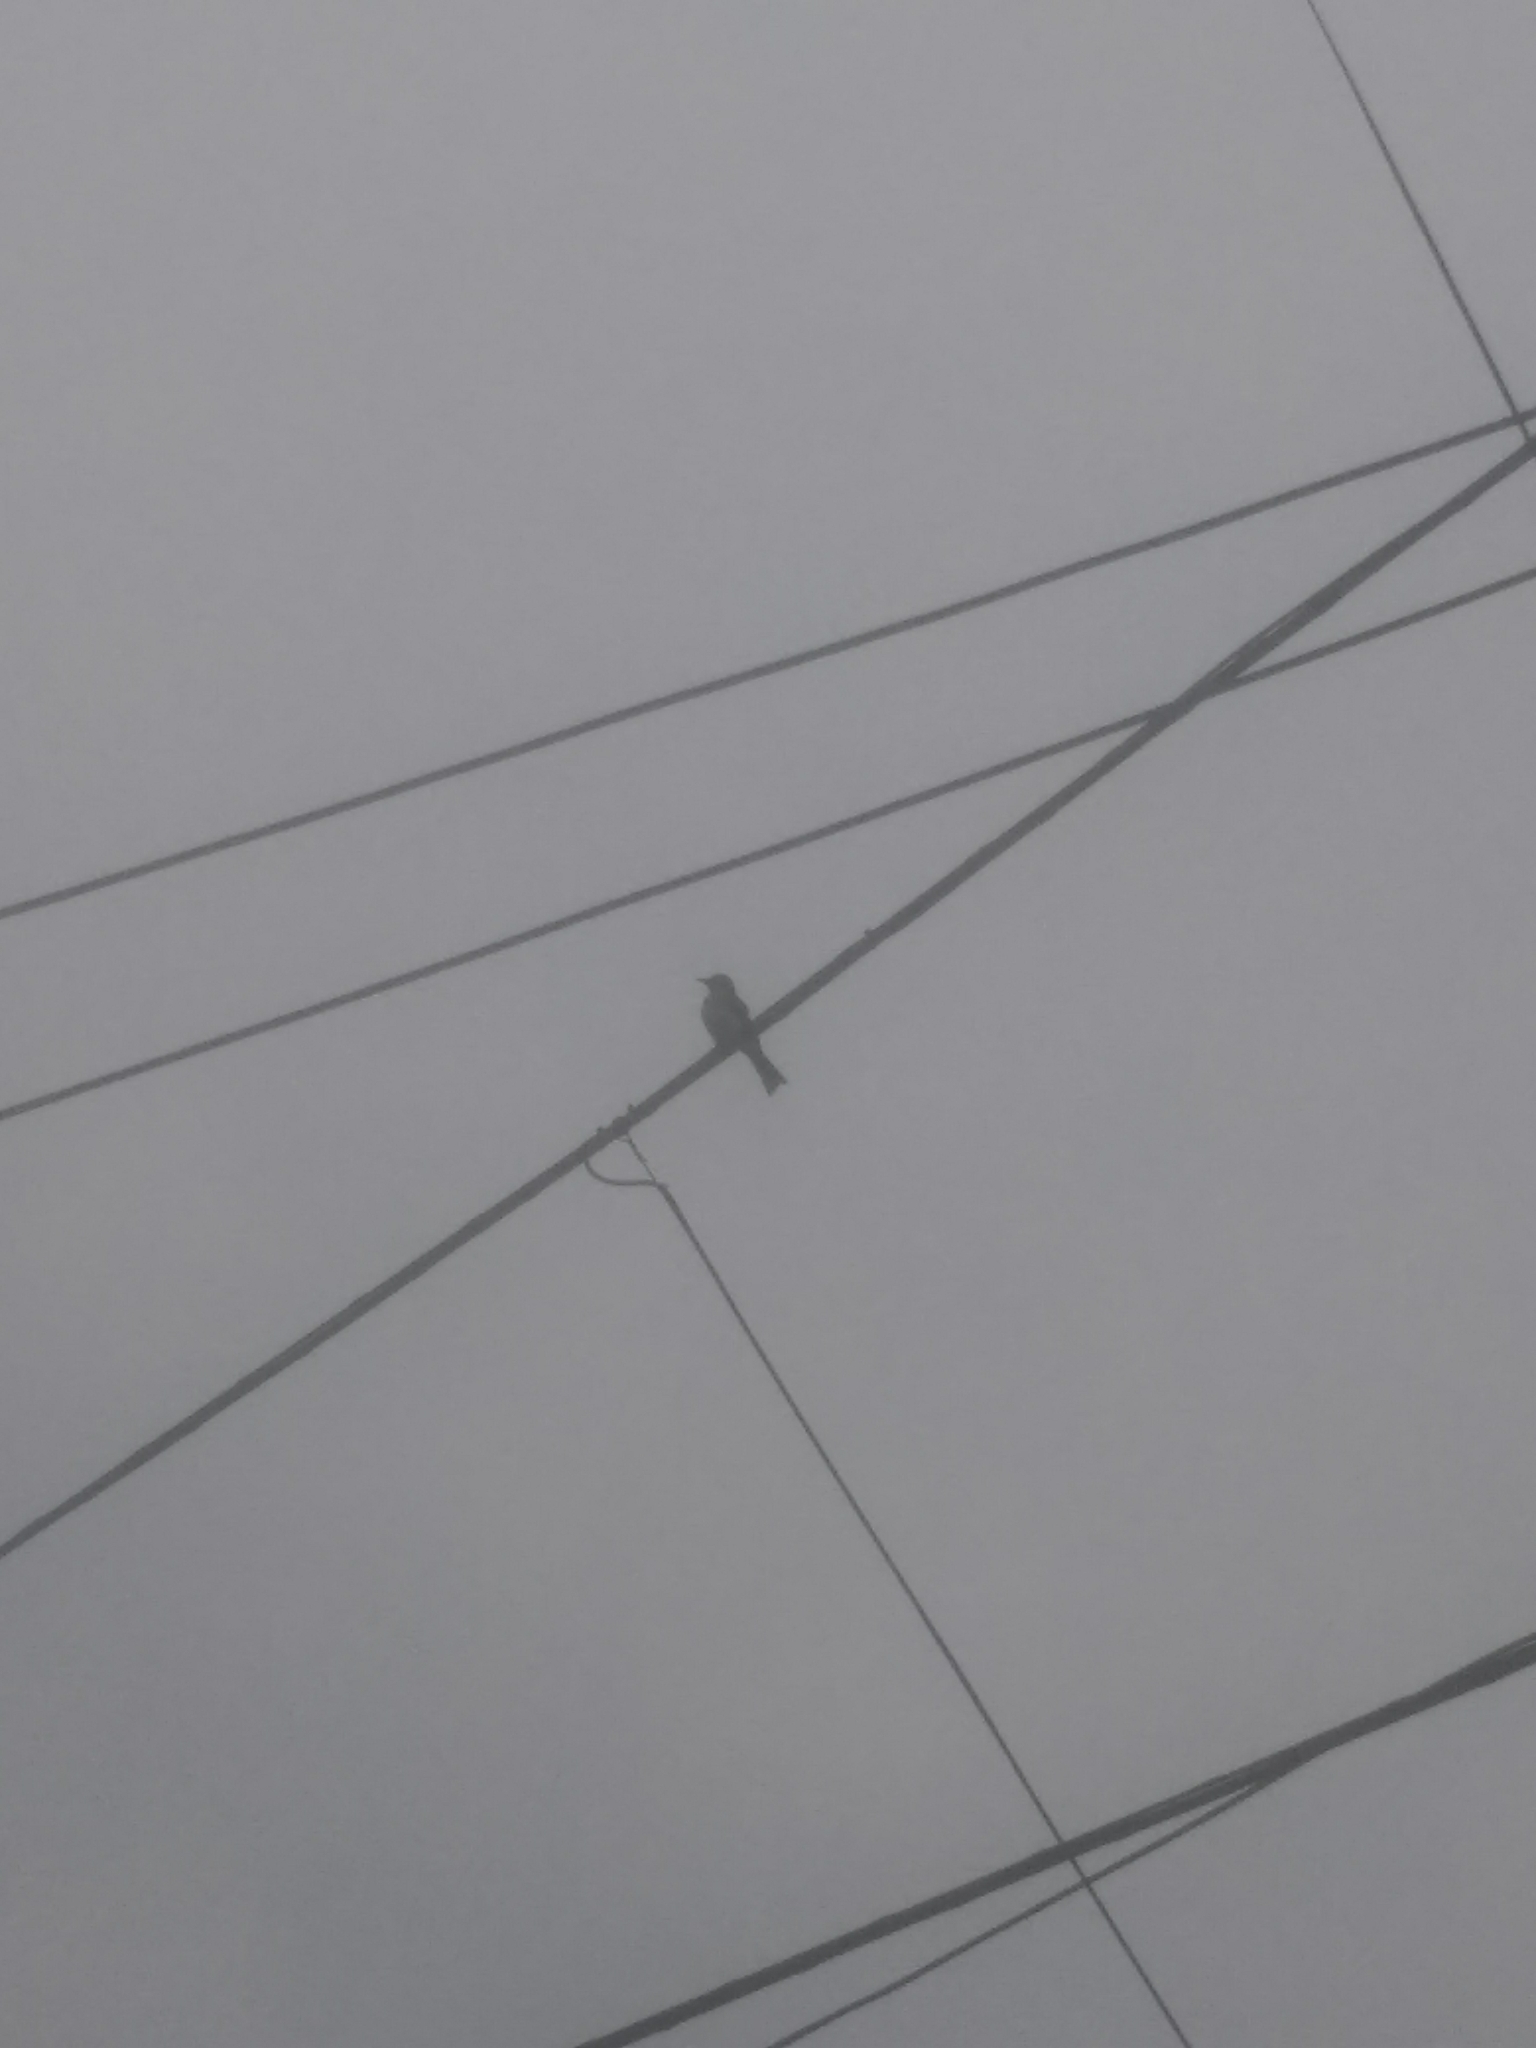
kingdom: Animalia
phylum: Chordata
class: Aves
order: Passeriformes
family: Tyrannidae
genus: Tyrannus
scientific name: Tyrannus melancholicus
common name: Tropical kingbird
